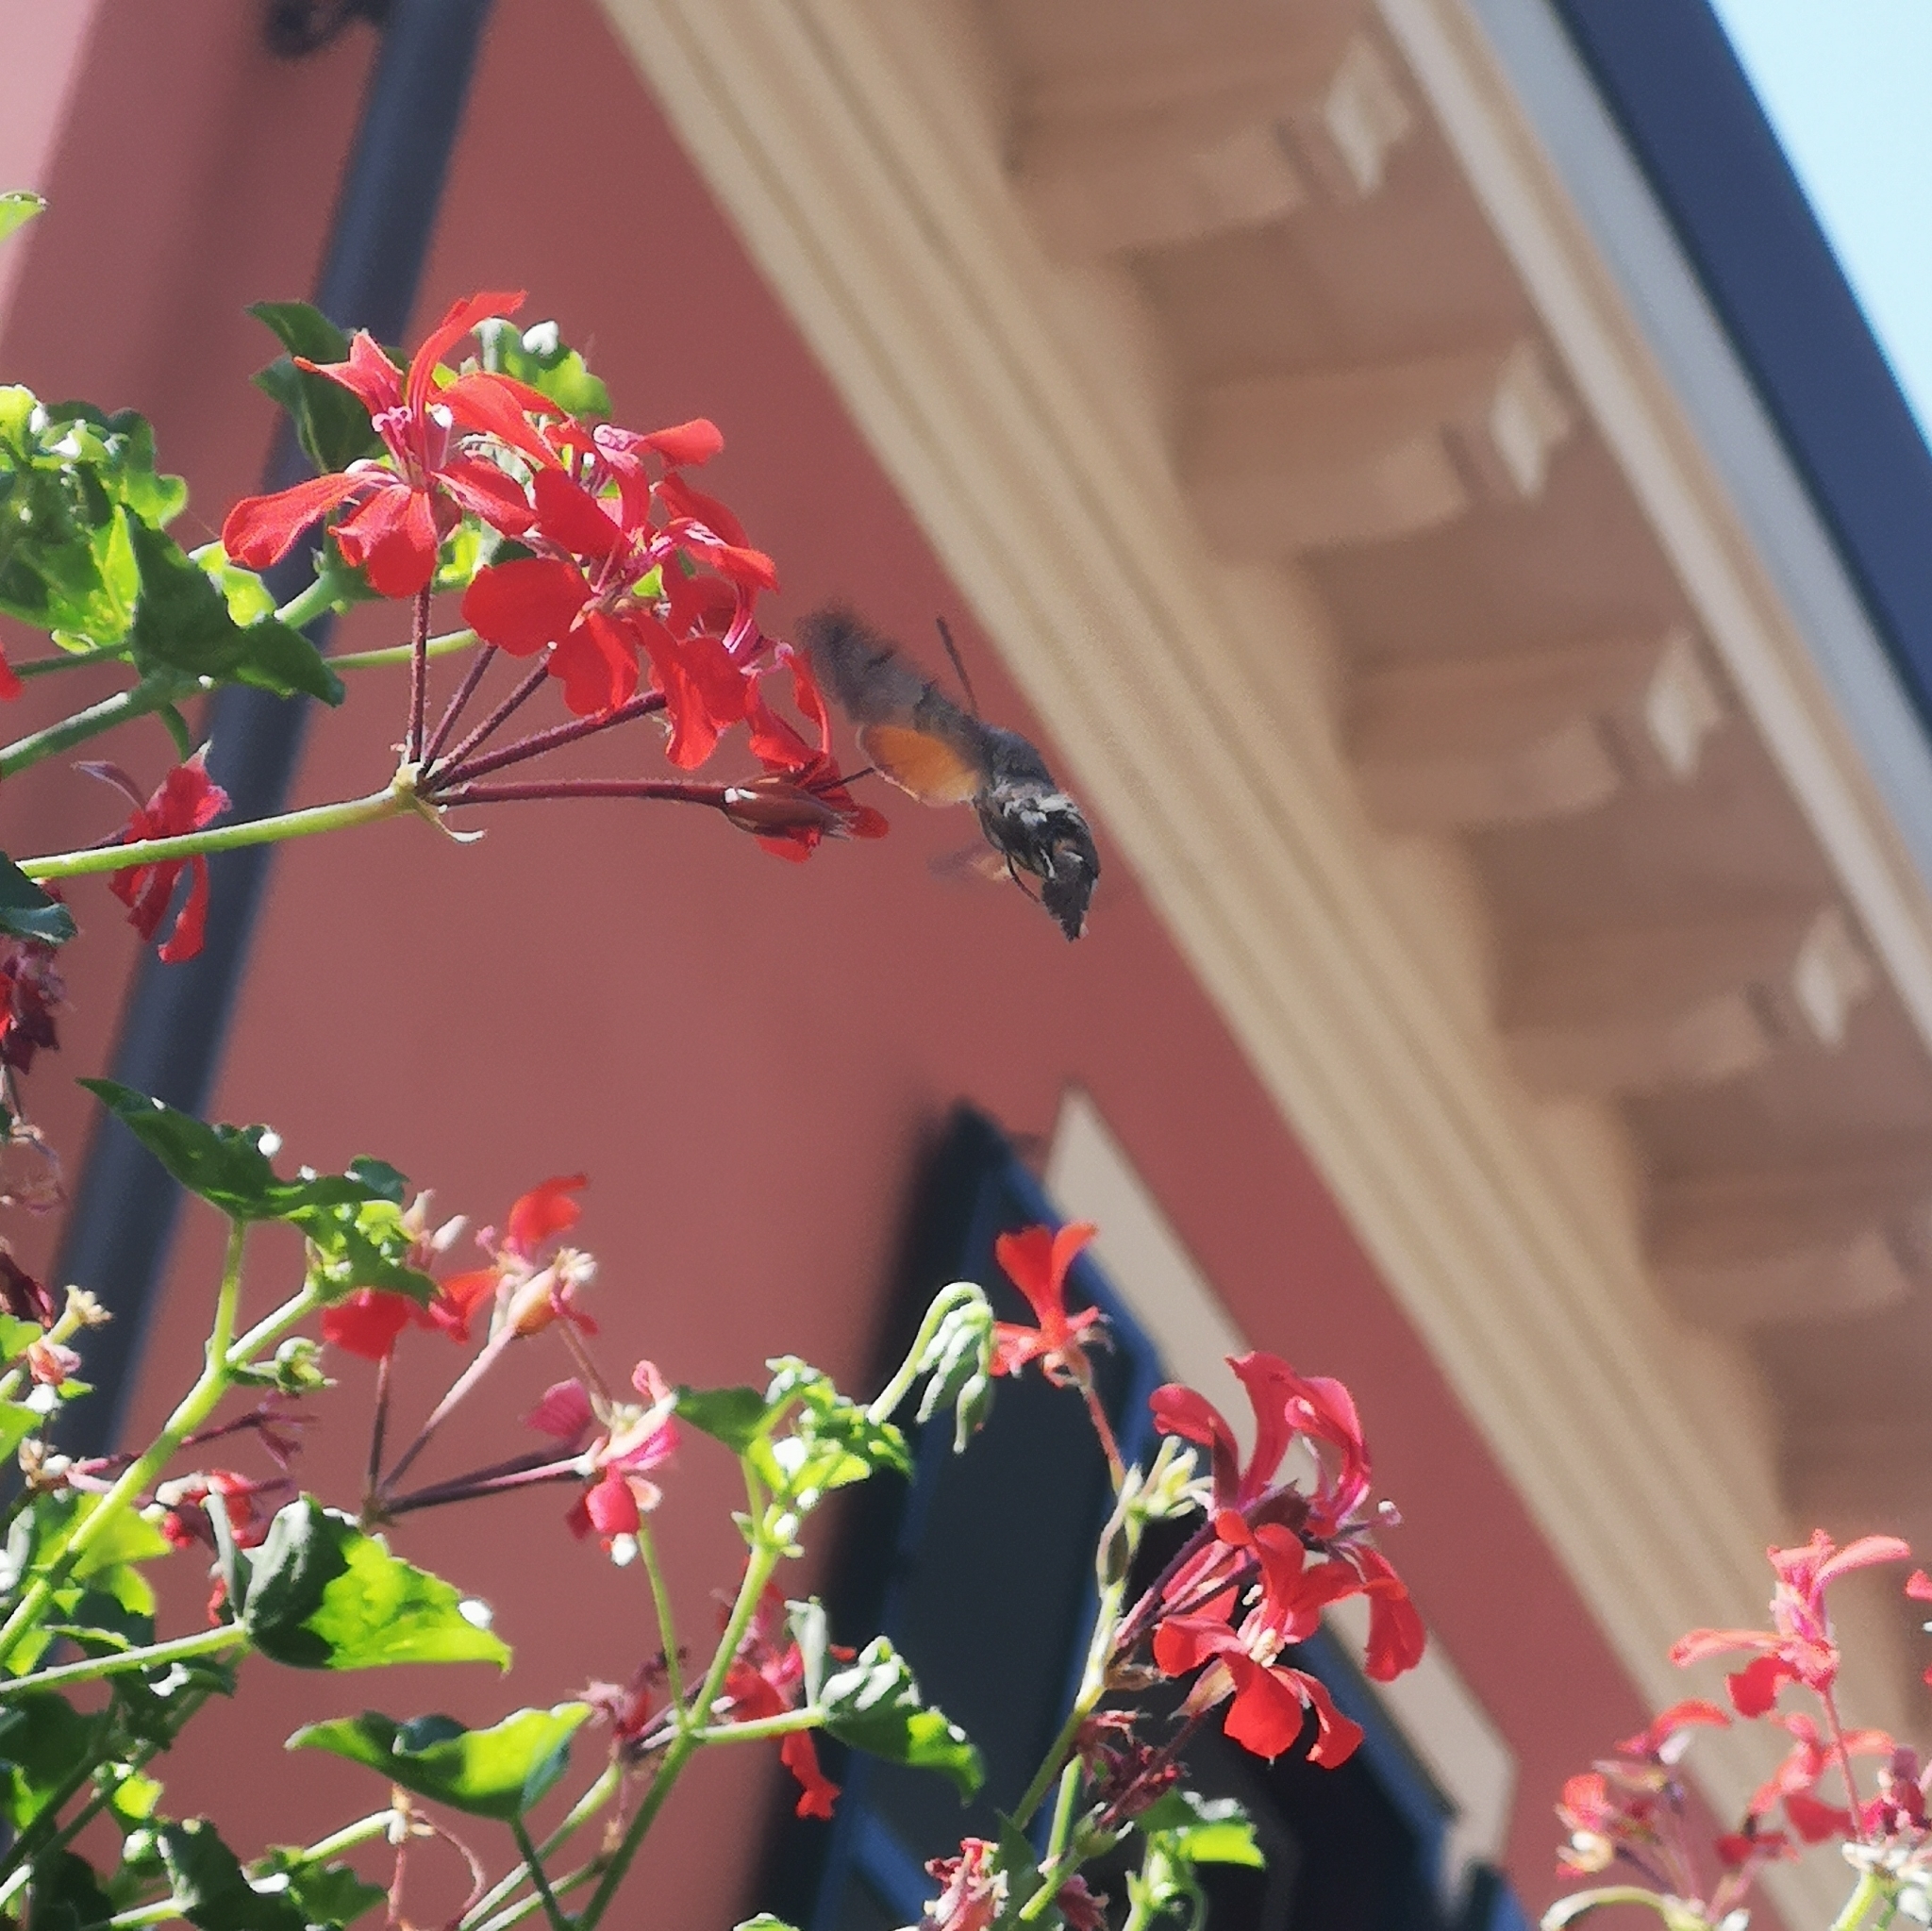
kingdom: Animalia
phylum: Arthropoda
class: Insecta
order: Lepidoptera
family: Sphingidae
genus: Macroglossum
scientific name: Macroglossum stellatarum
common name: Humming-bird hawk-moth
